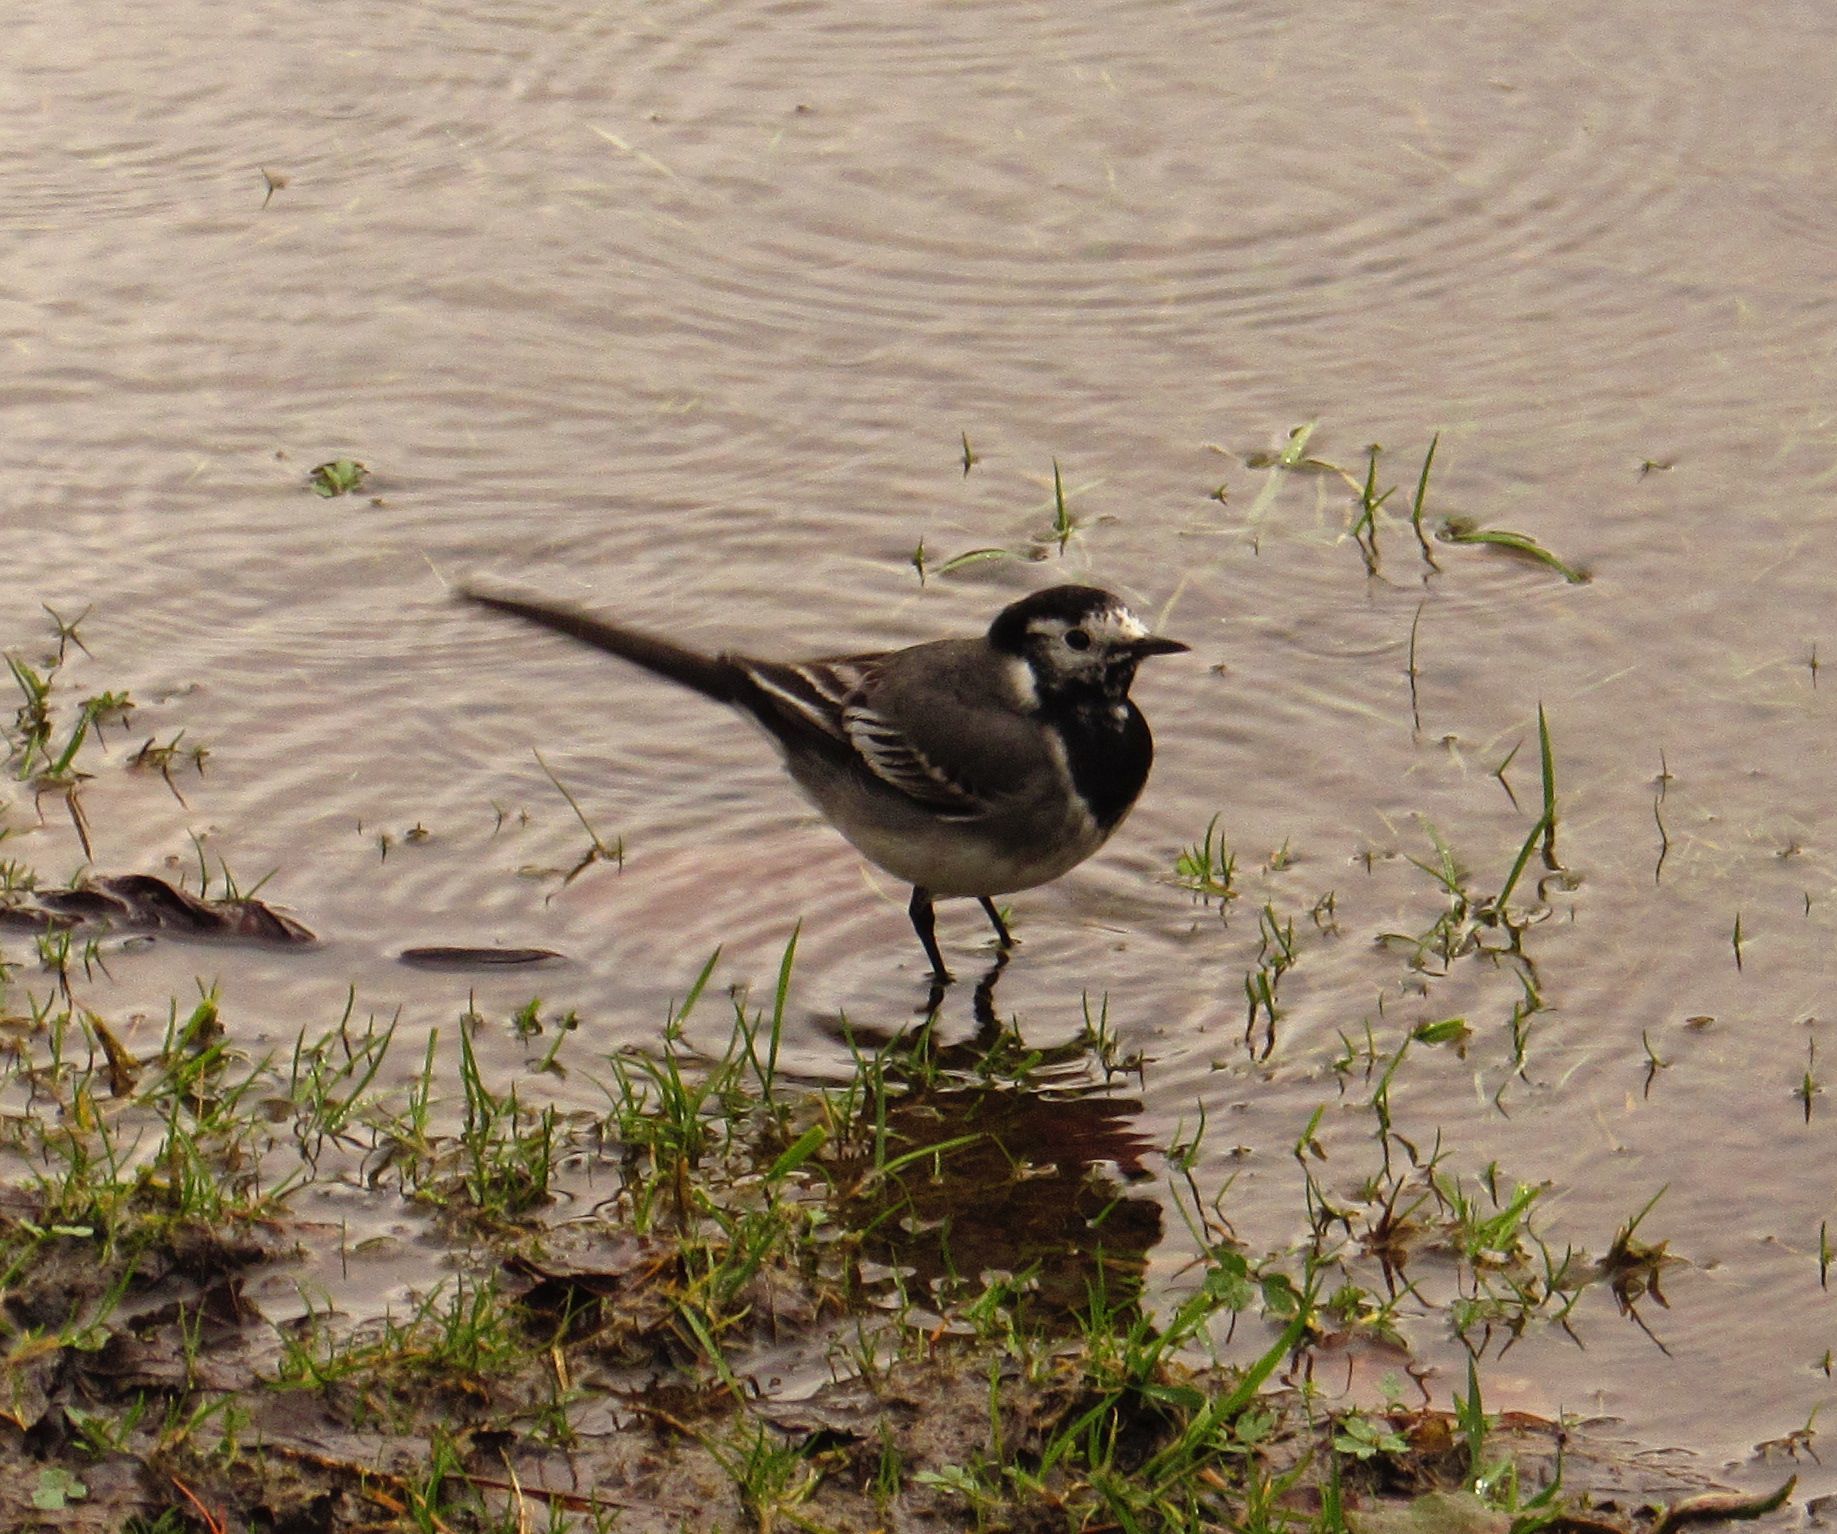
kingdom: Animalia
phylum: Chordata
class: Aves
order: Passeriformes
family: Motacillidae
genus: Motacilla
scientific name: Motacilla alba
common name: White wagtail
